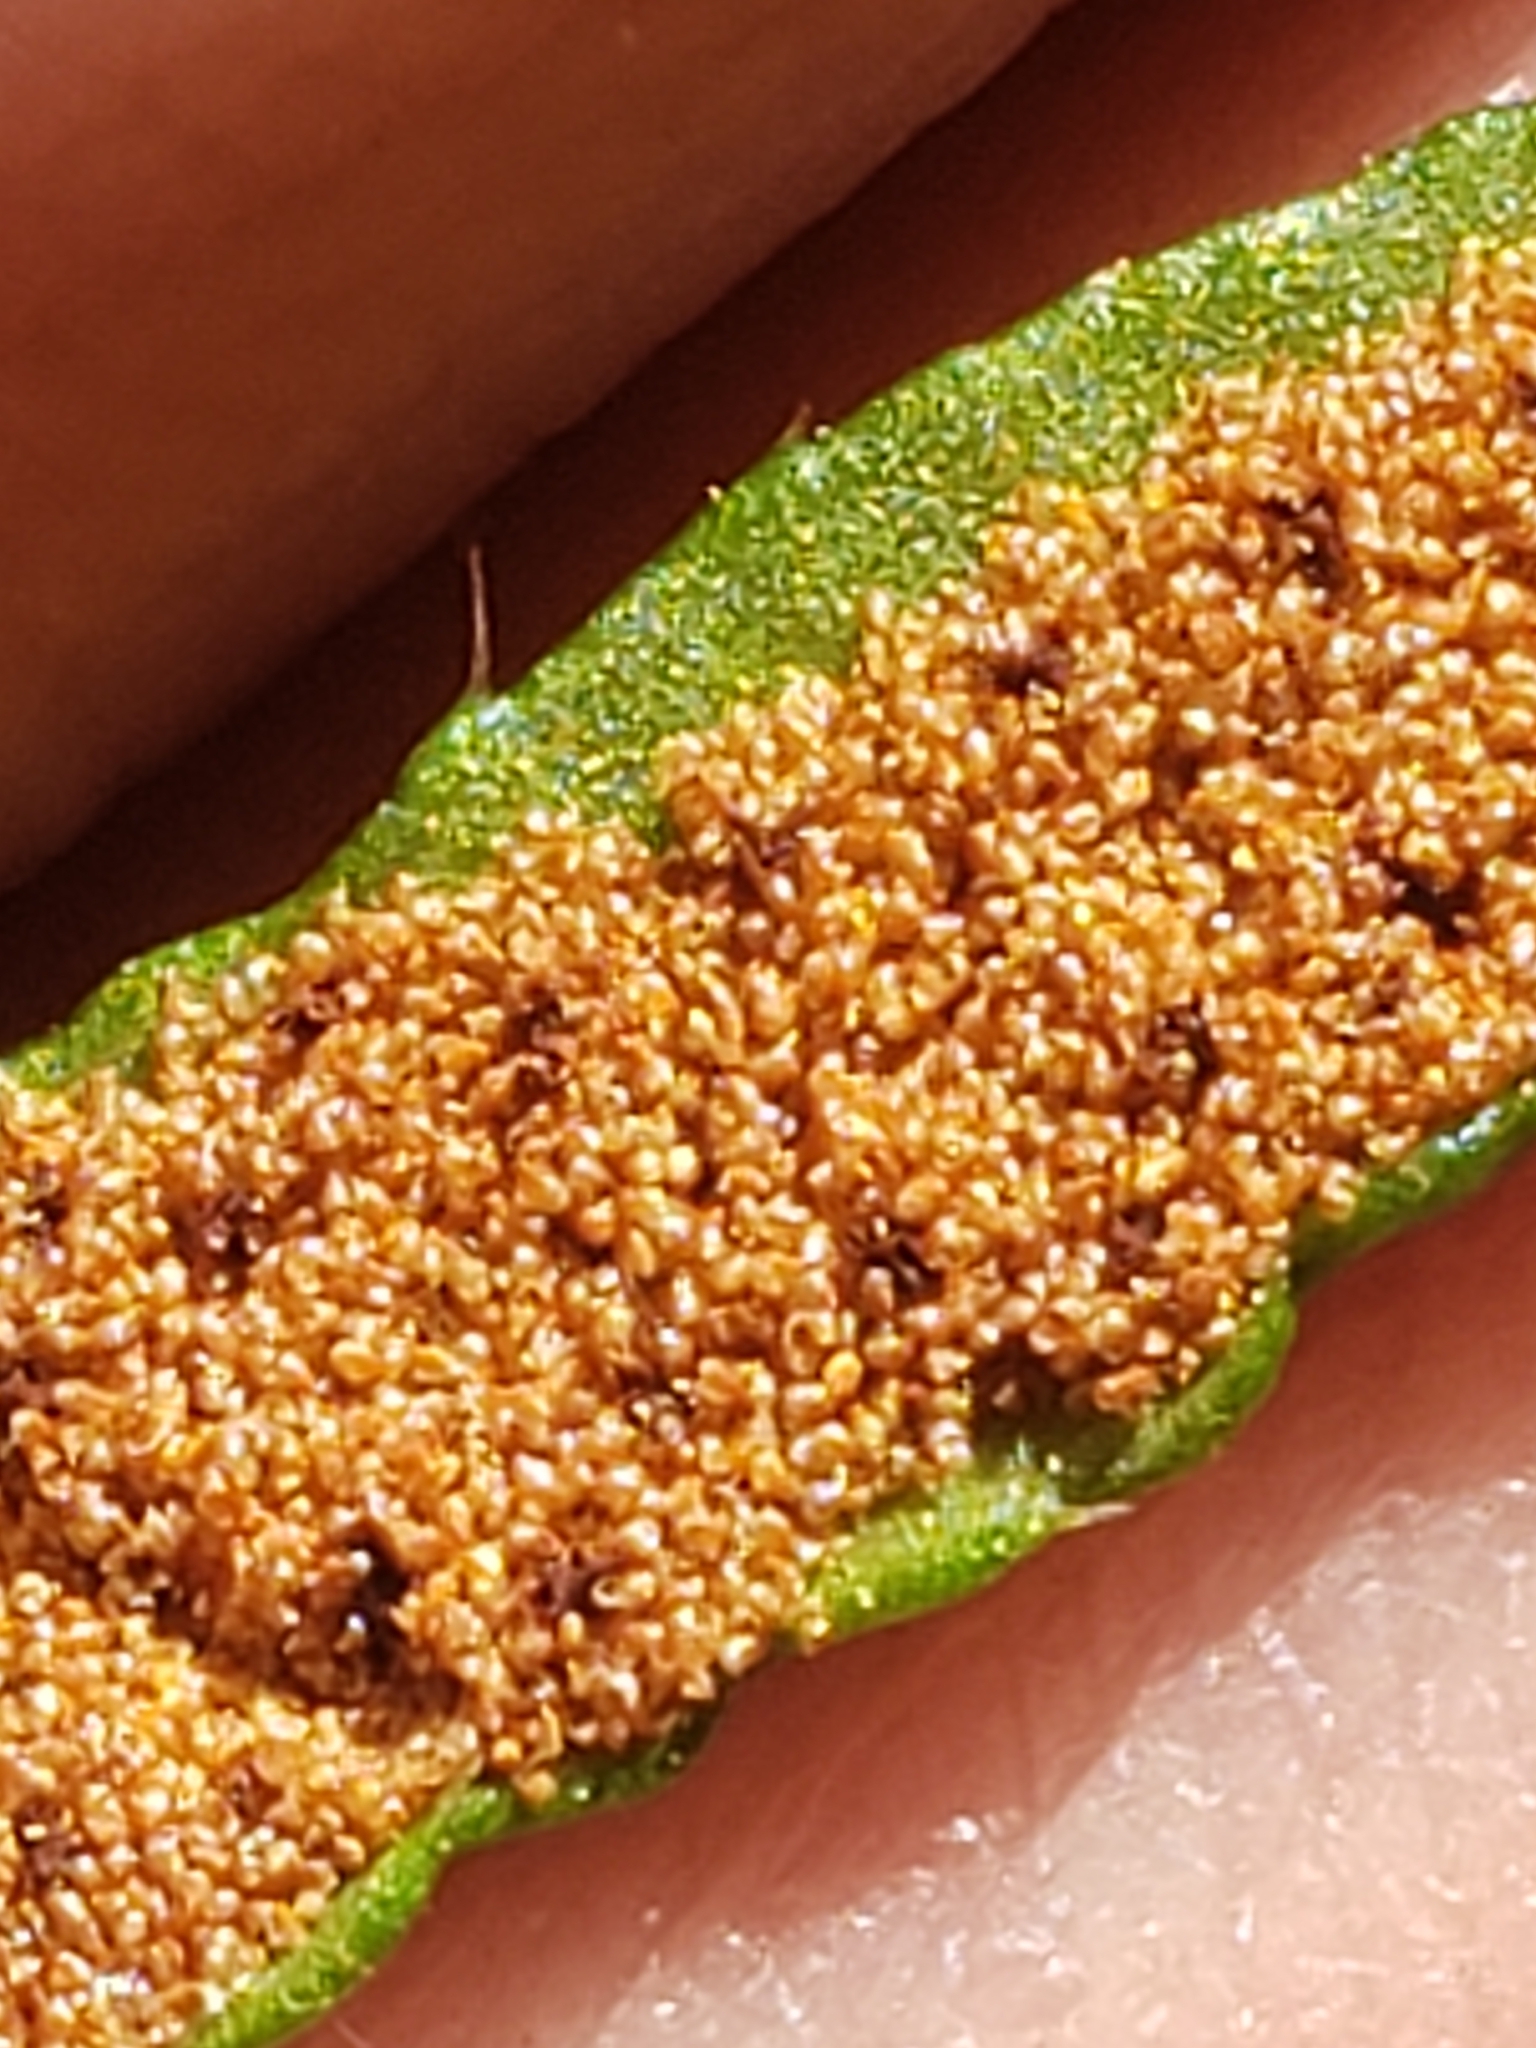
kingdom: Plantae
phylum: Tracheophyta
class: Polypodiopsida
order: Polypodiales
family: Dryopteridaceae
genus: Polystichum
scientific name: Polystichum acrostichoides
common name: Christmas fern
